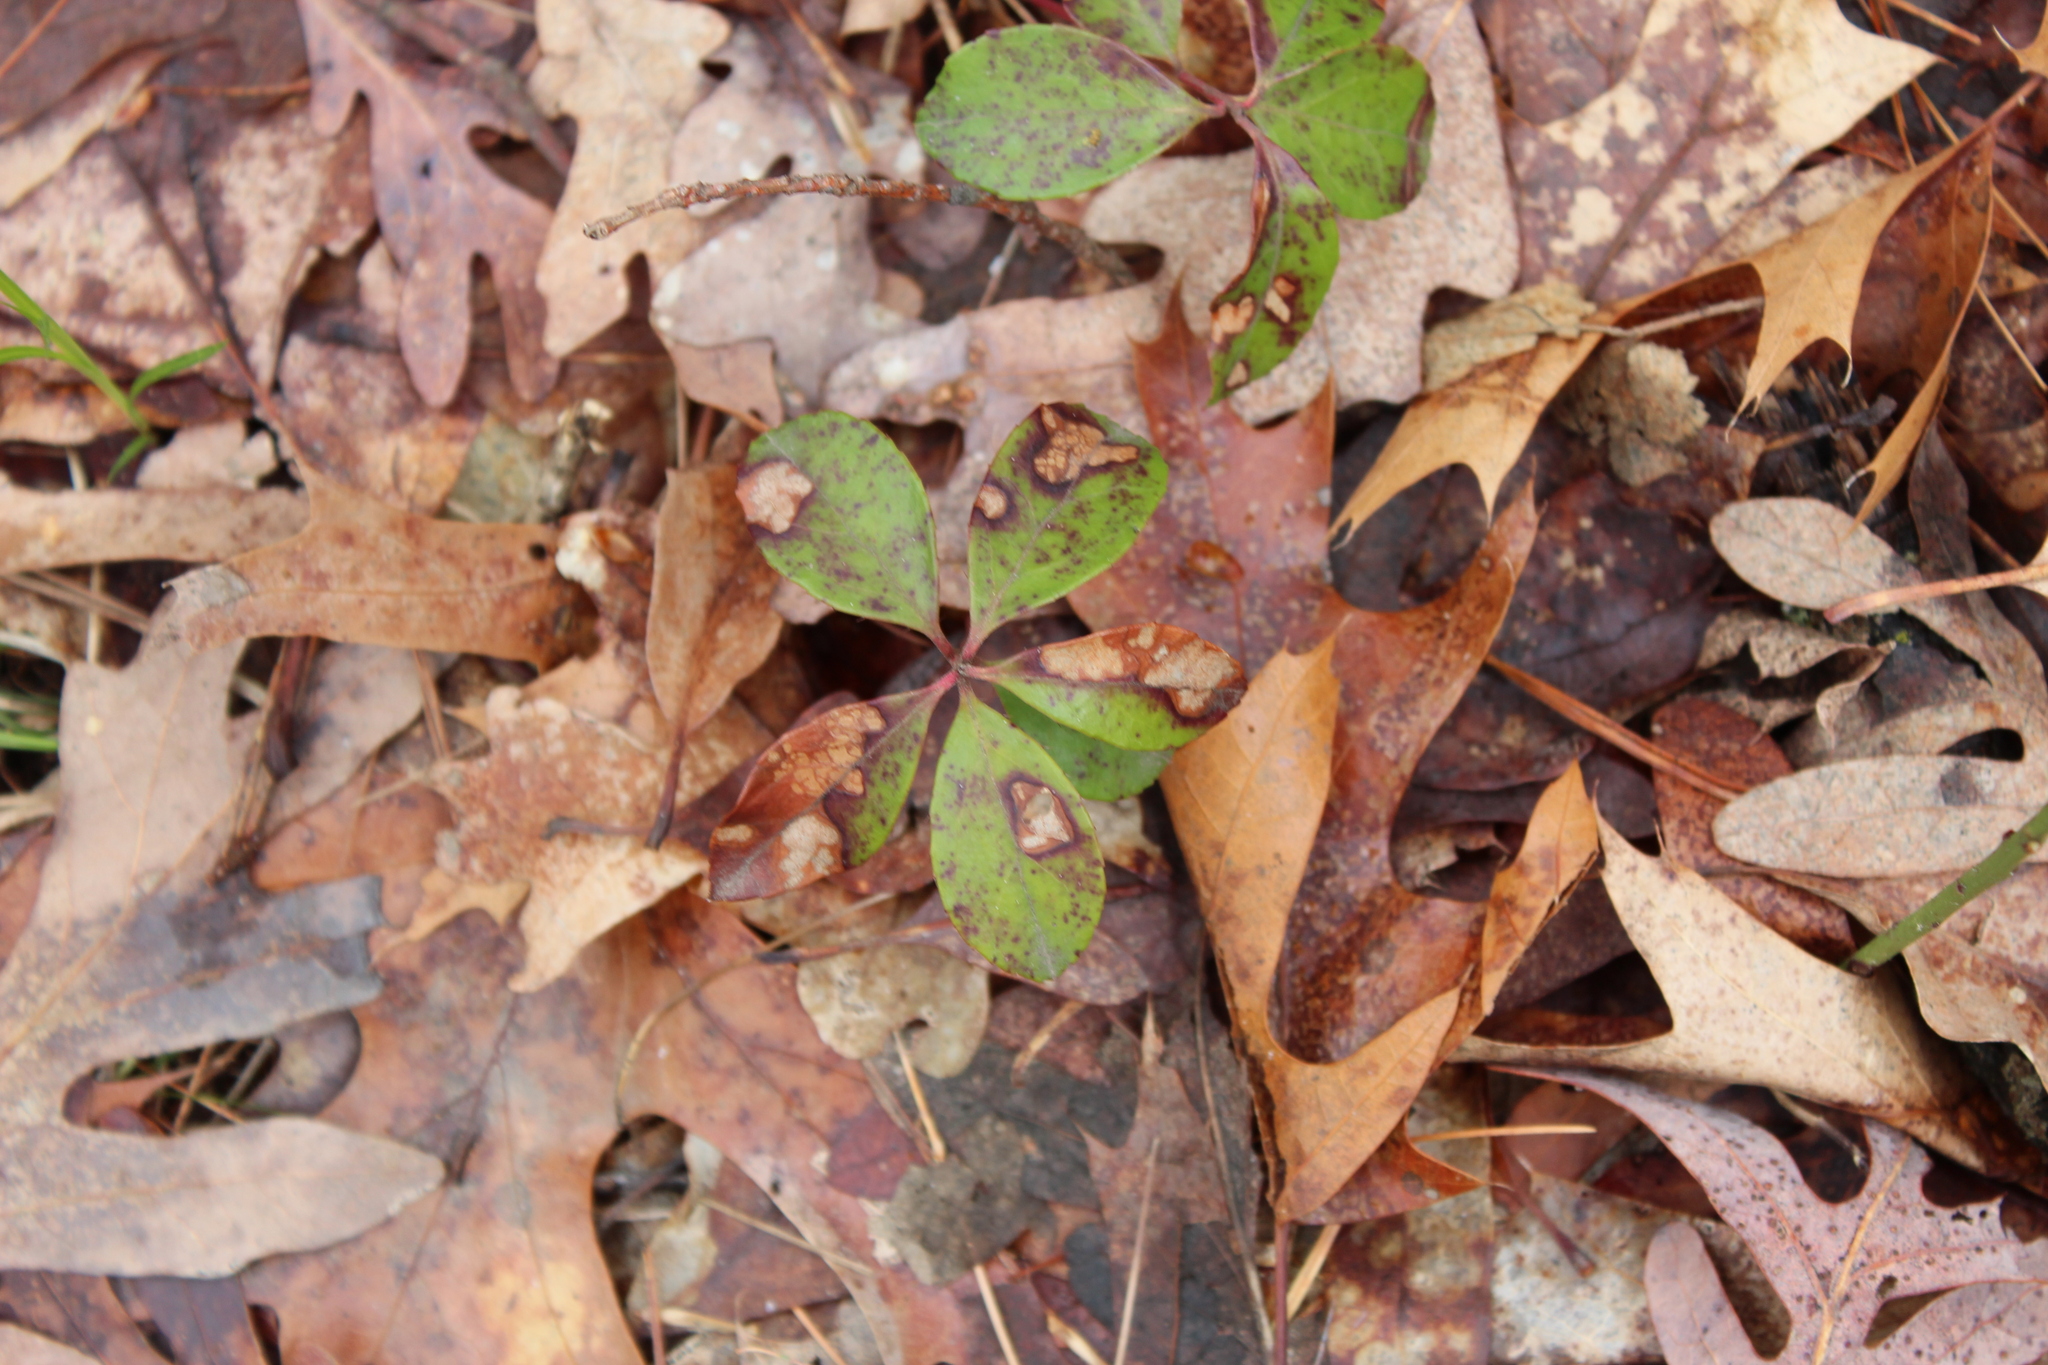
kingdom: Plantae
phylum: Tracheophyta
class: Magnoliopsida
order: Ericales
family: Ericaceae
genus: Gaultheria
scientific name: Gaultheria procumbens
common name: Checkerberry
